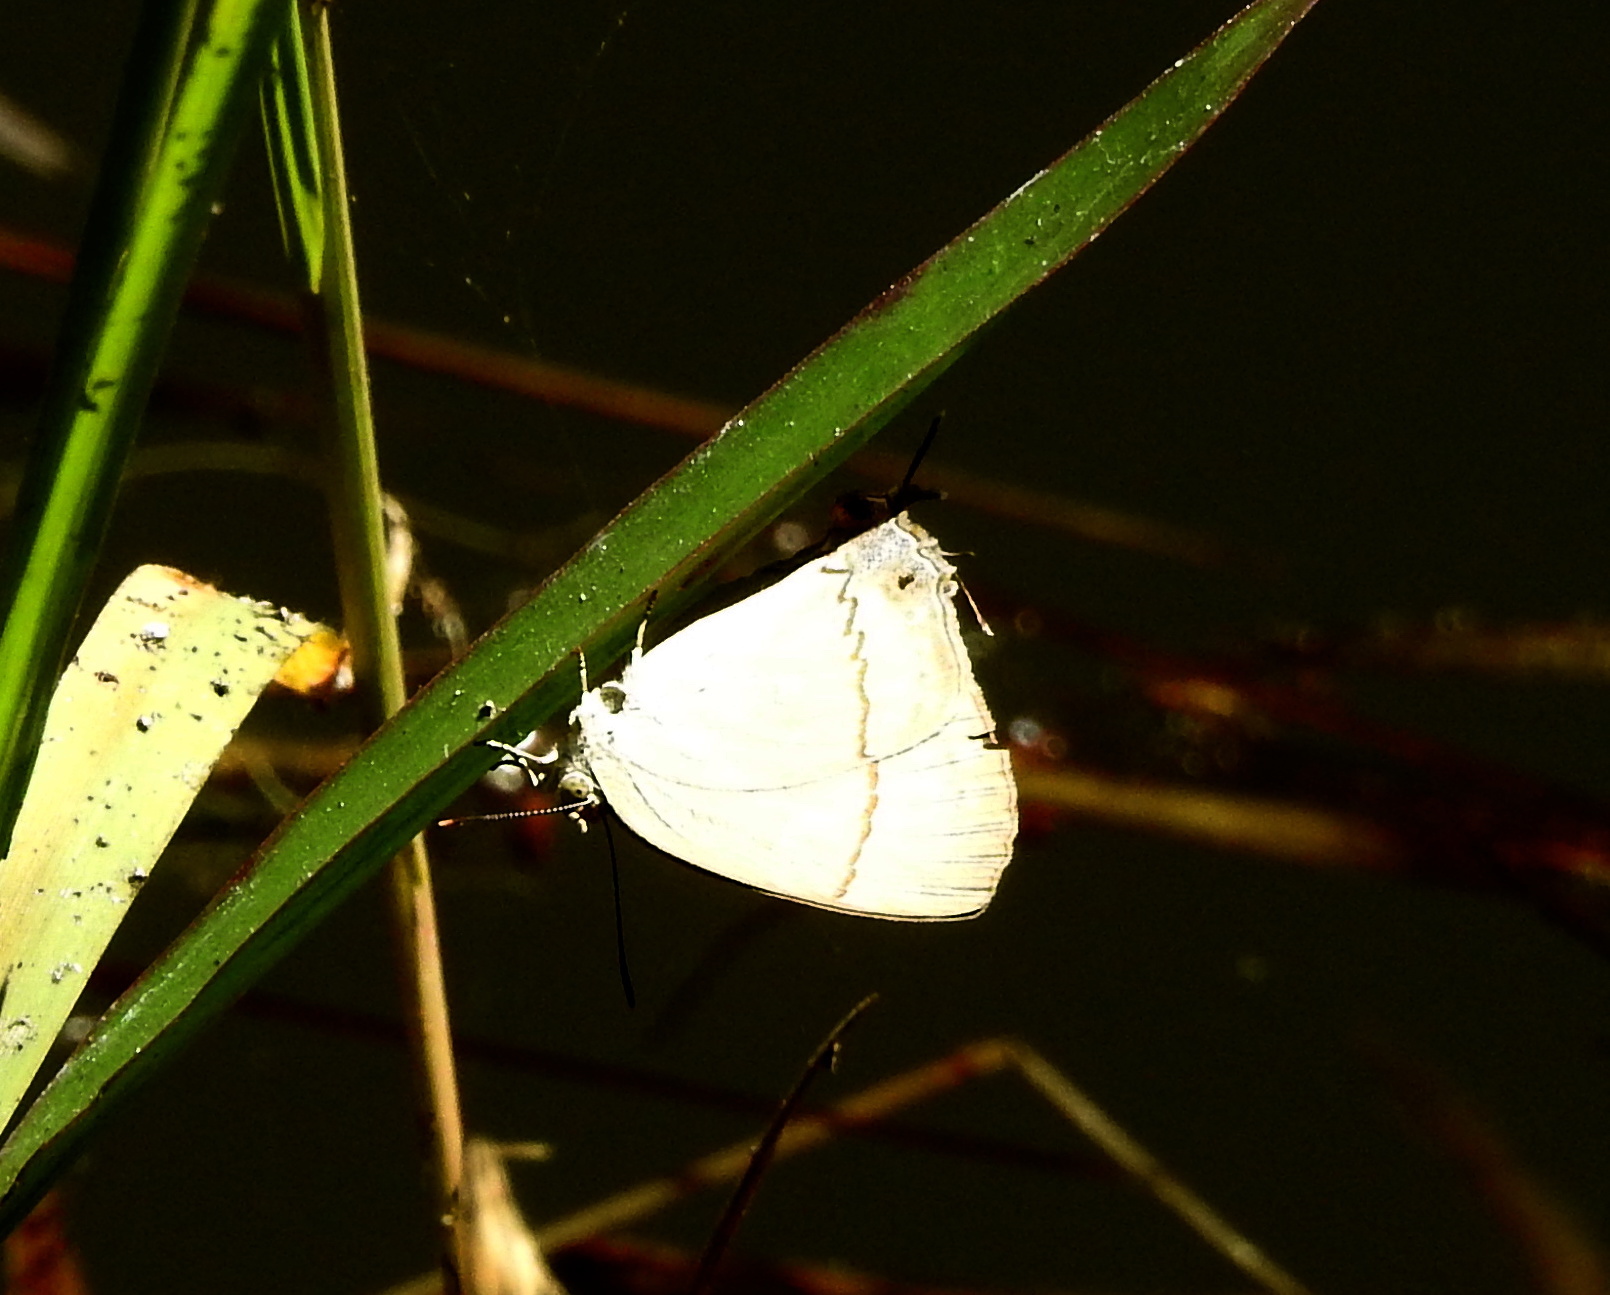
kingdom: Animalia
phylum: Arthropoda
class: Insecta
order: Lepidoptera
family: Lycaenidae
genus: Creon
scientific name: Creon cleobis
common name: Broad-tail royal
